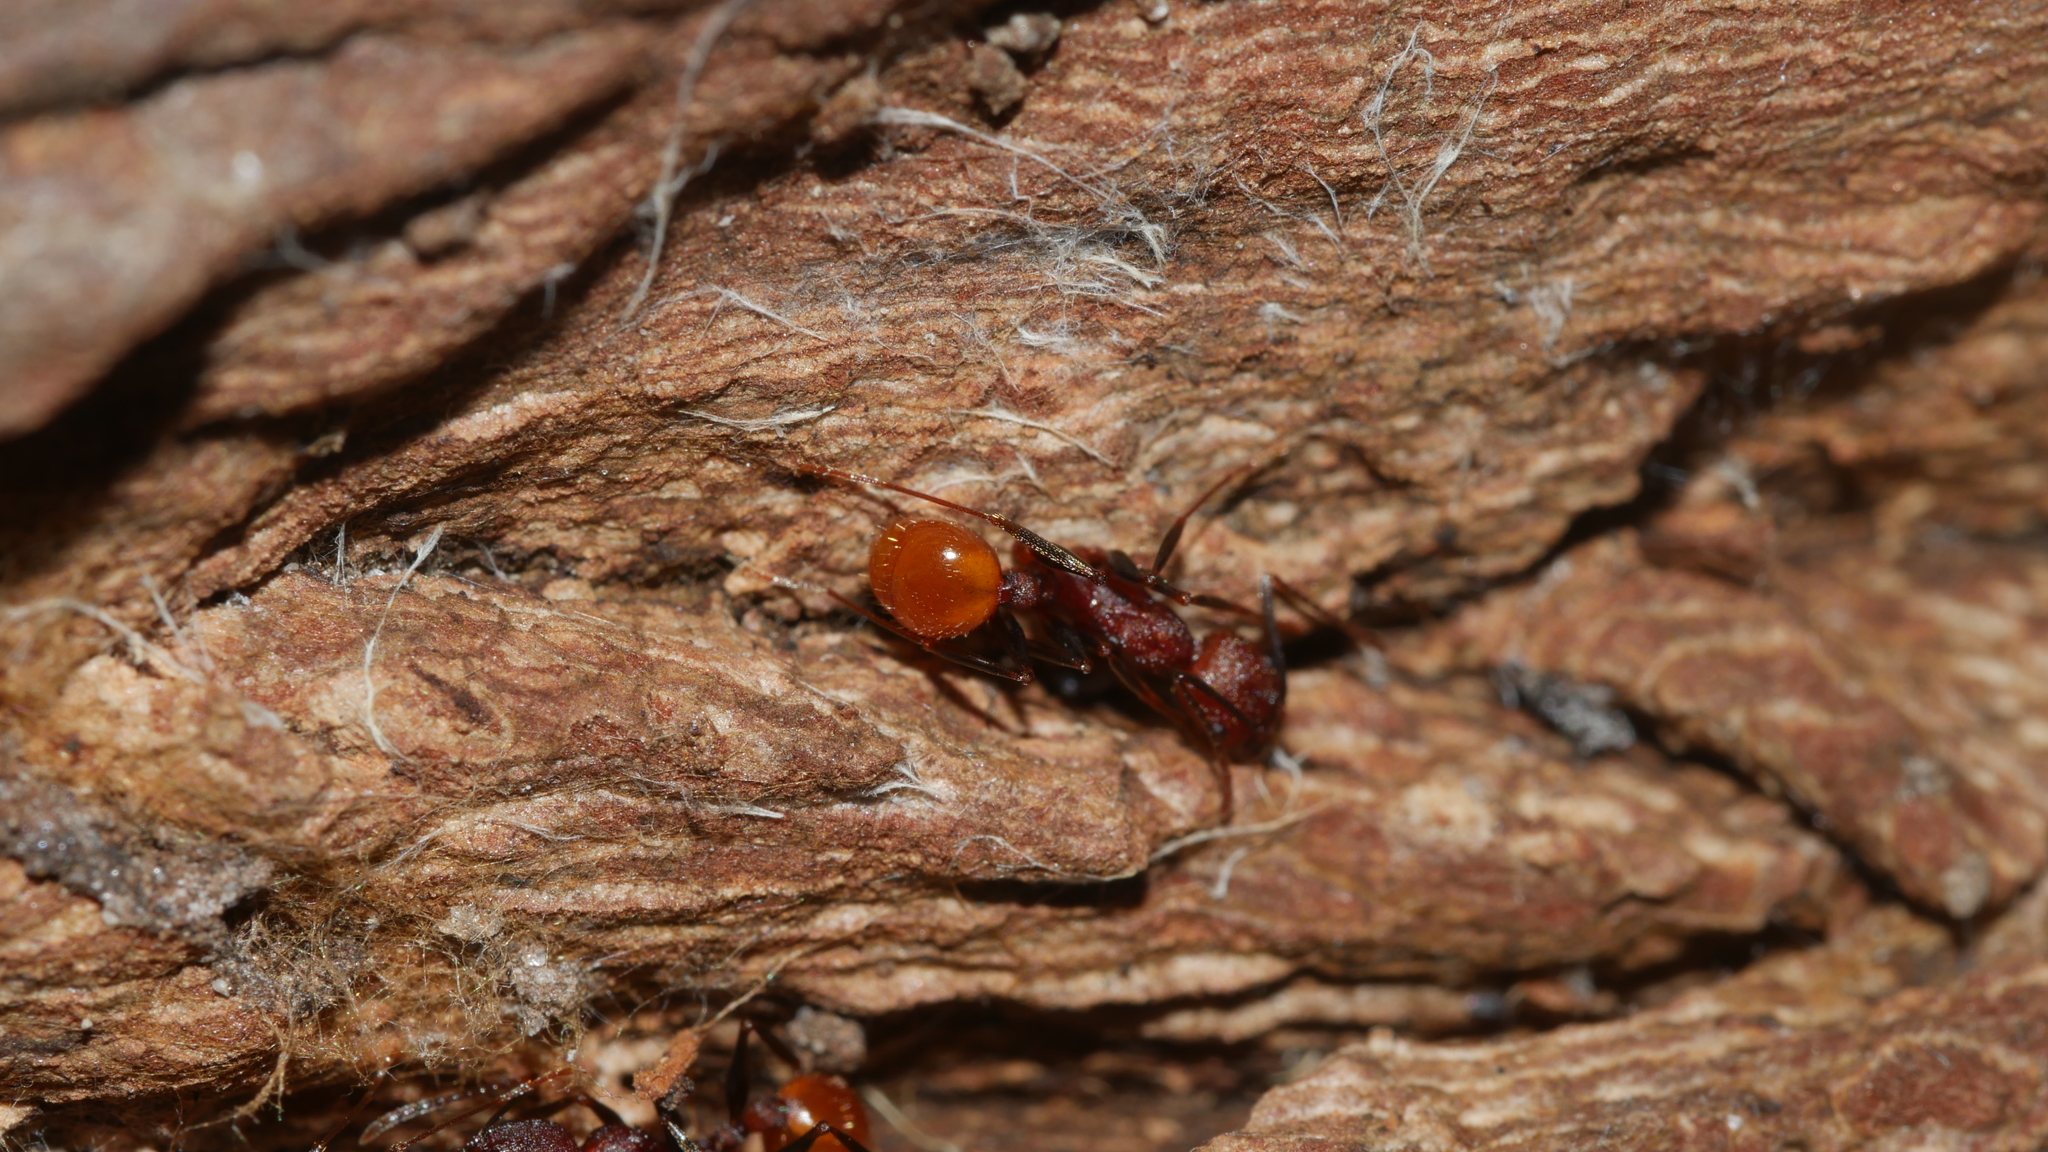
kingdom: Animalia
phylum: Arthropoda
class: Insecta
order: Hymenoptera
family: Formicidae
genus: Aphaenogaster
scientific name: Aphaenogaster lamellidens
